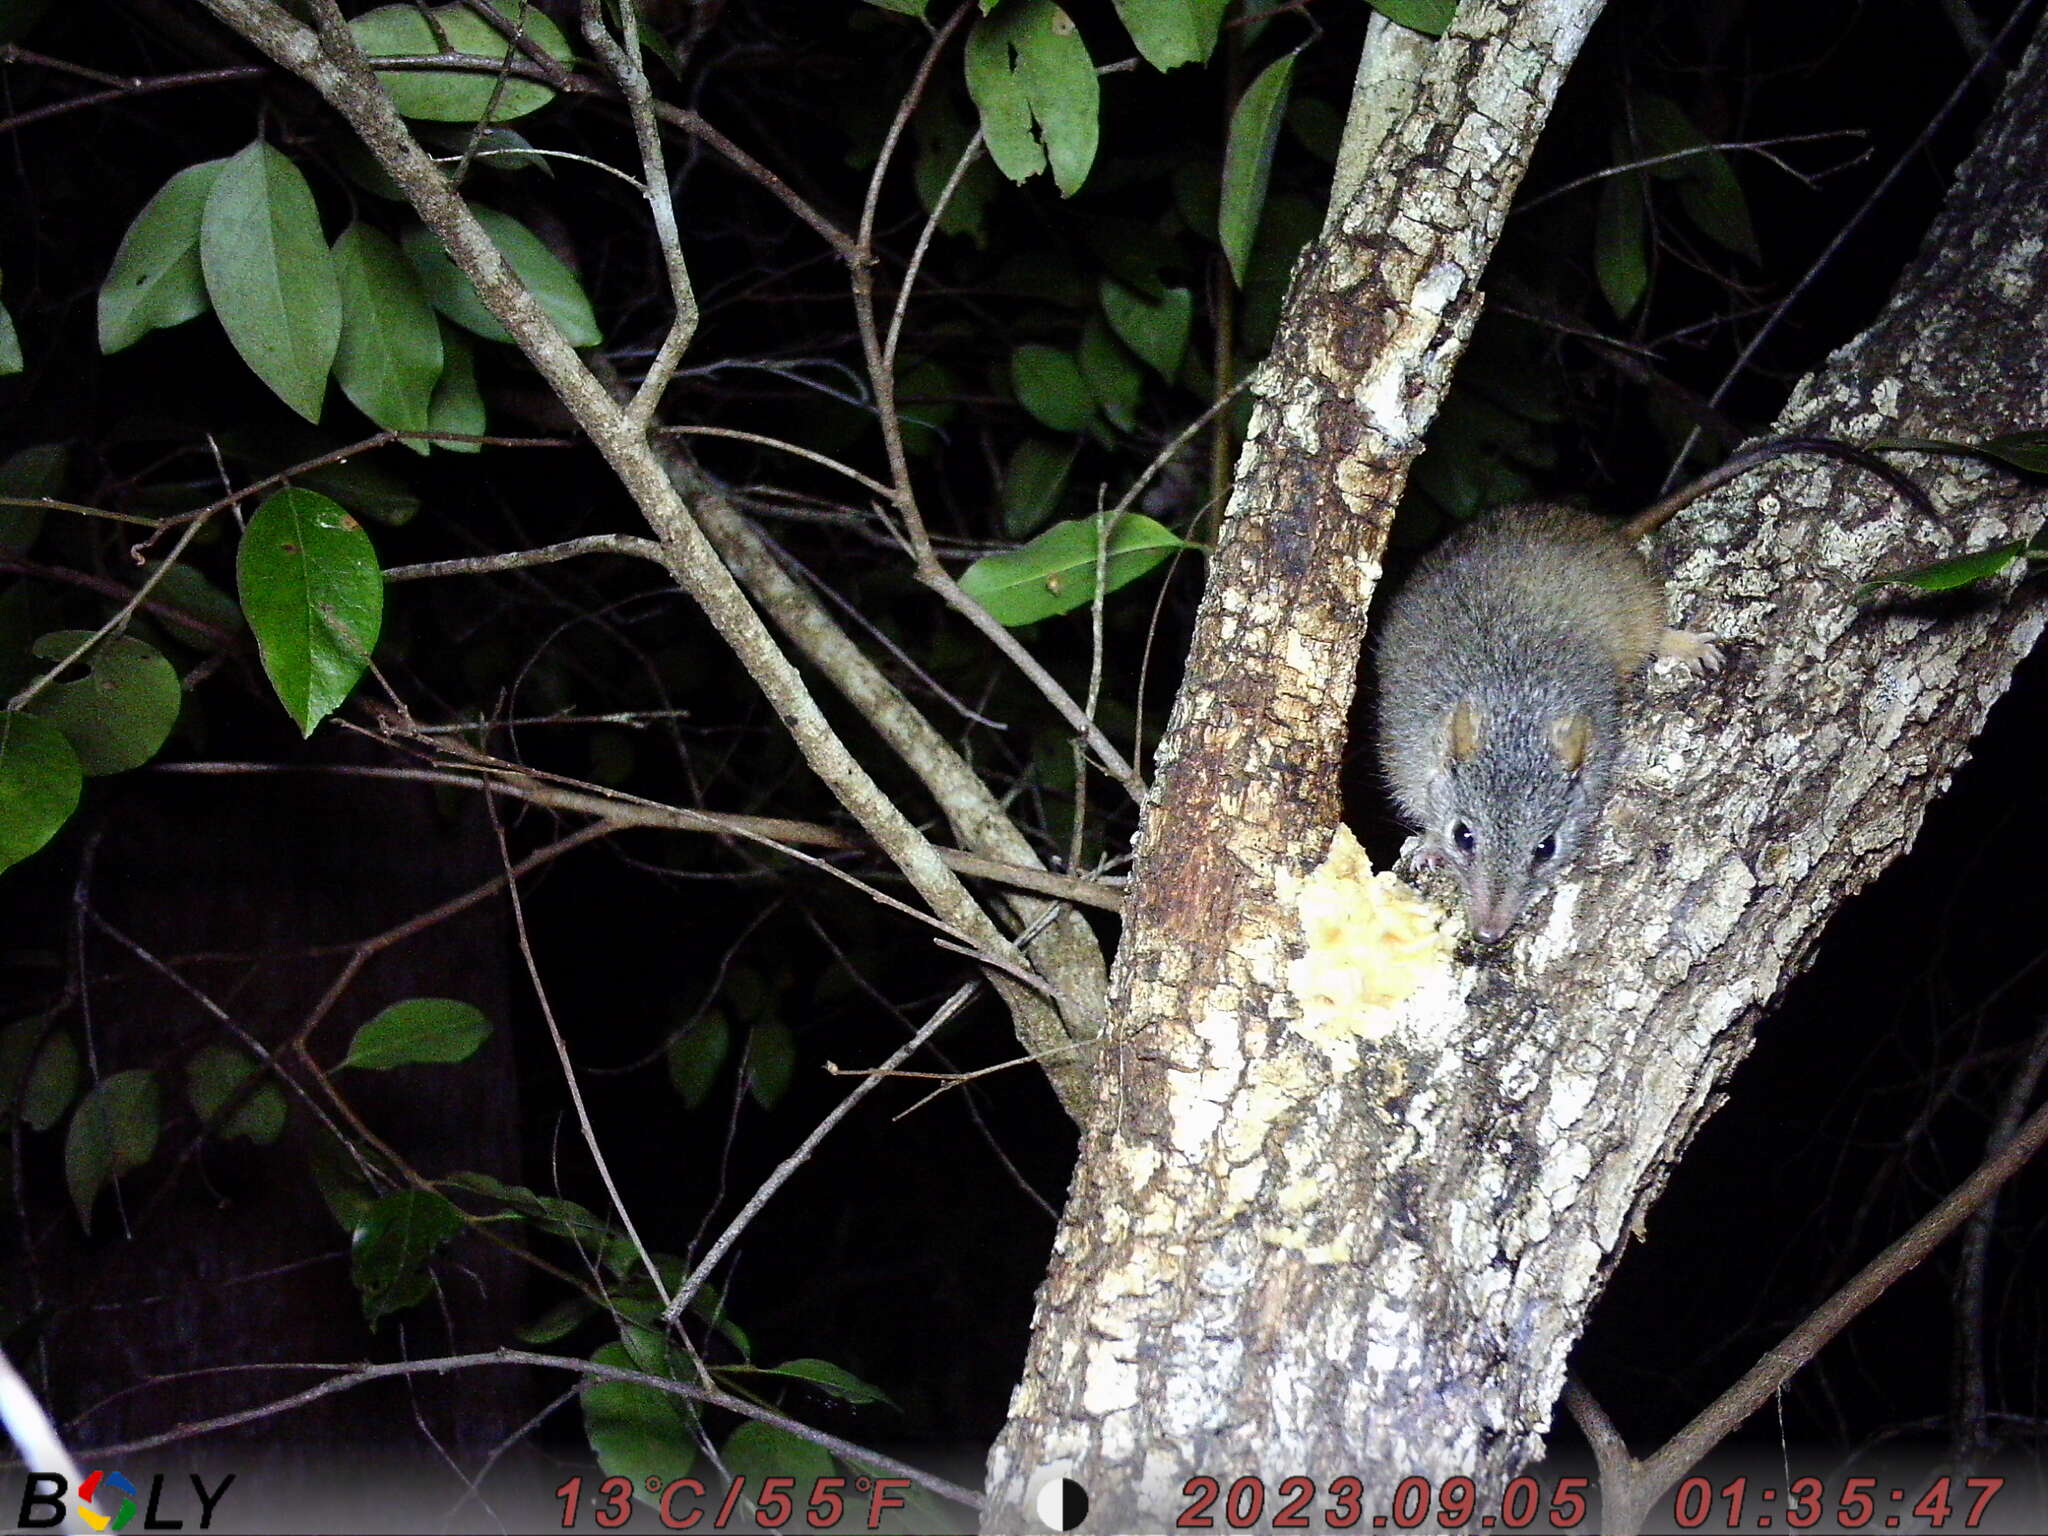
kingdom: Animalia
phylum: Chordata
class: Mammalia
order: Dasyuromorphia
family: Dasyuridae
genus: Antechinus
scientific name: Antechinus flavipes
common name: Yellow-footed antechinus
